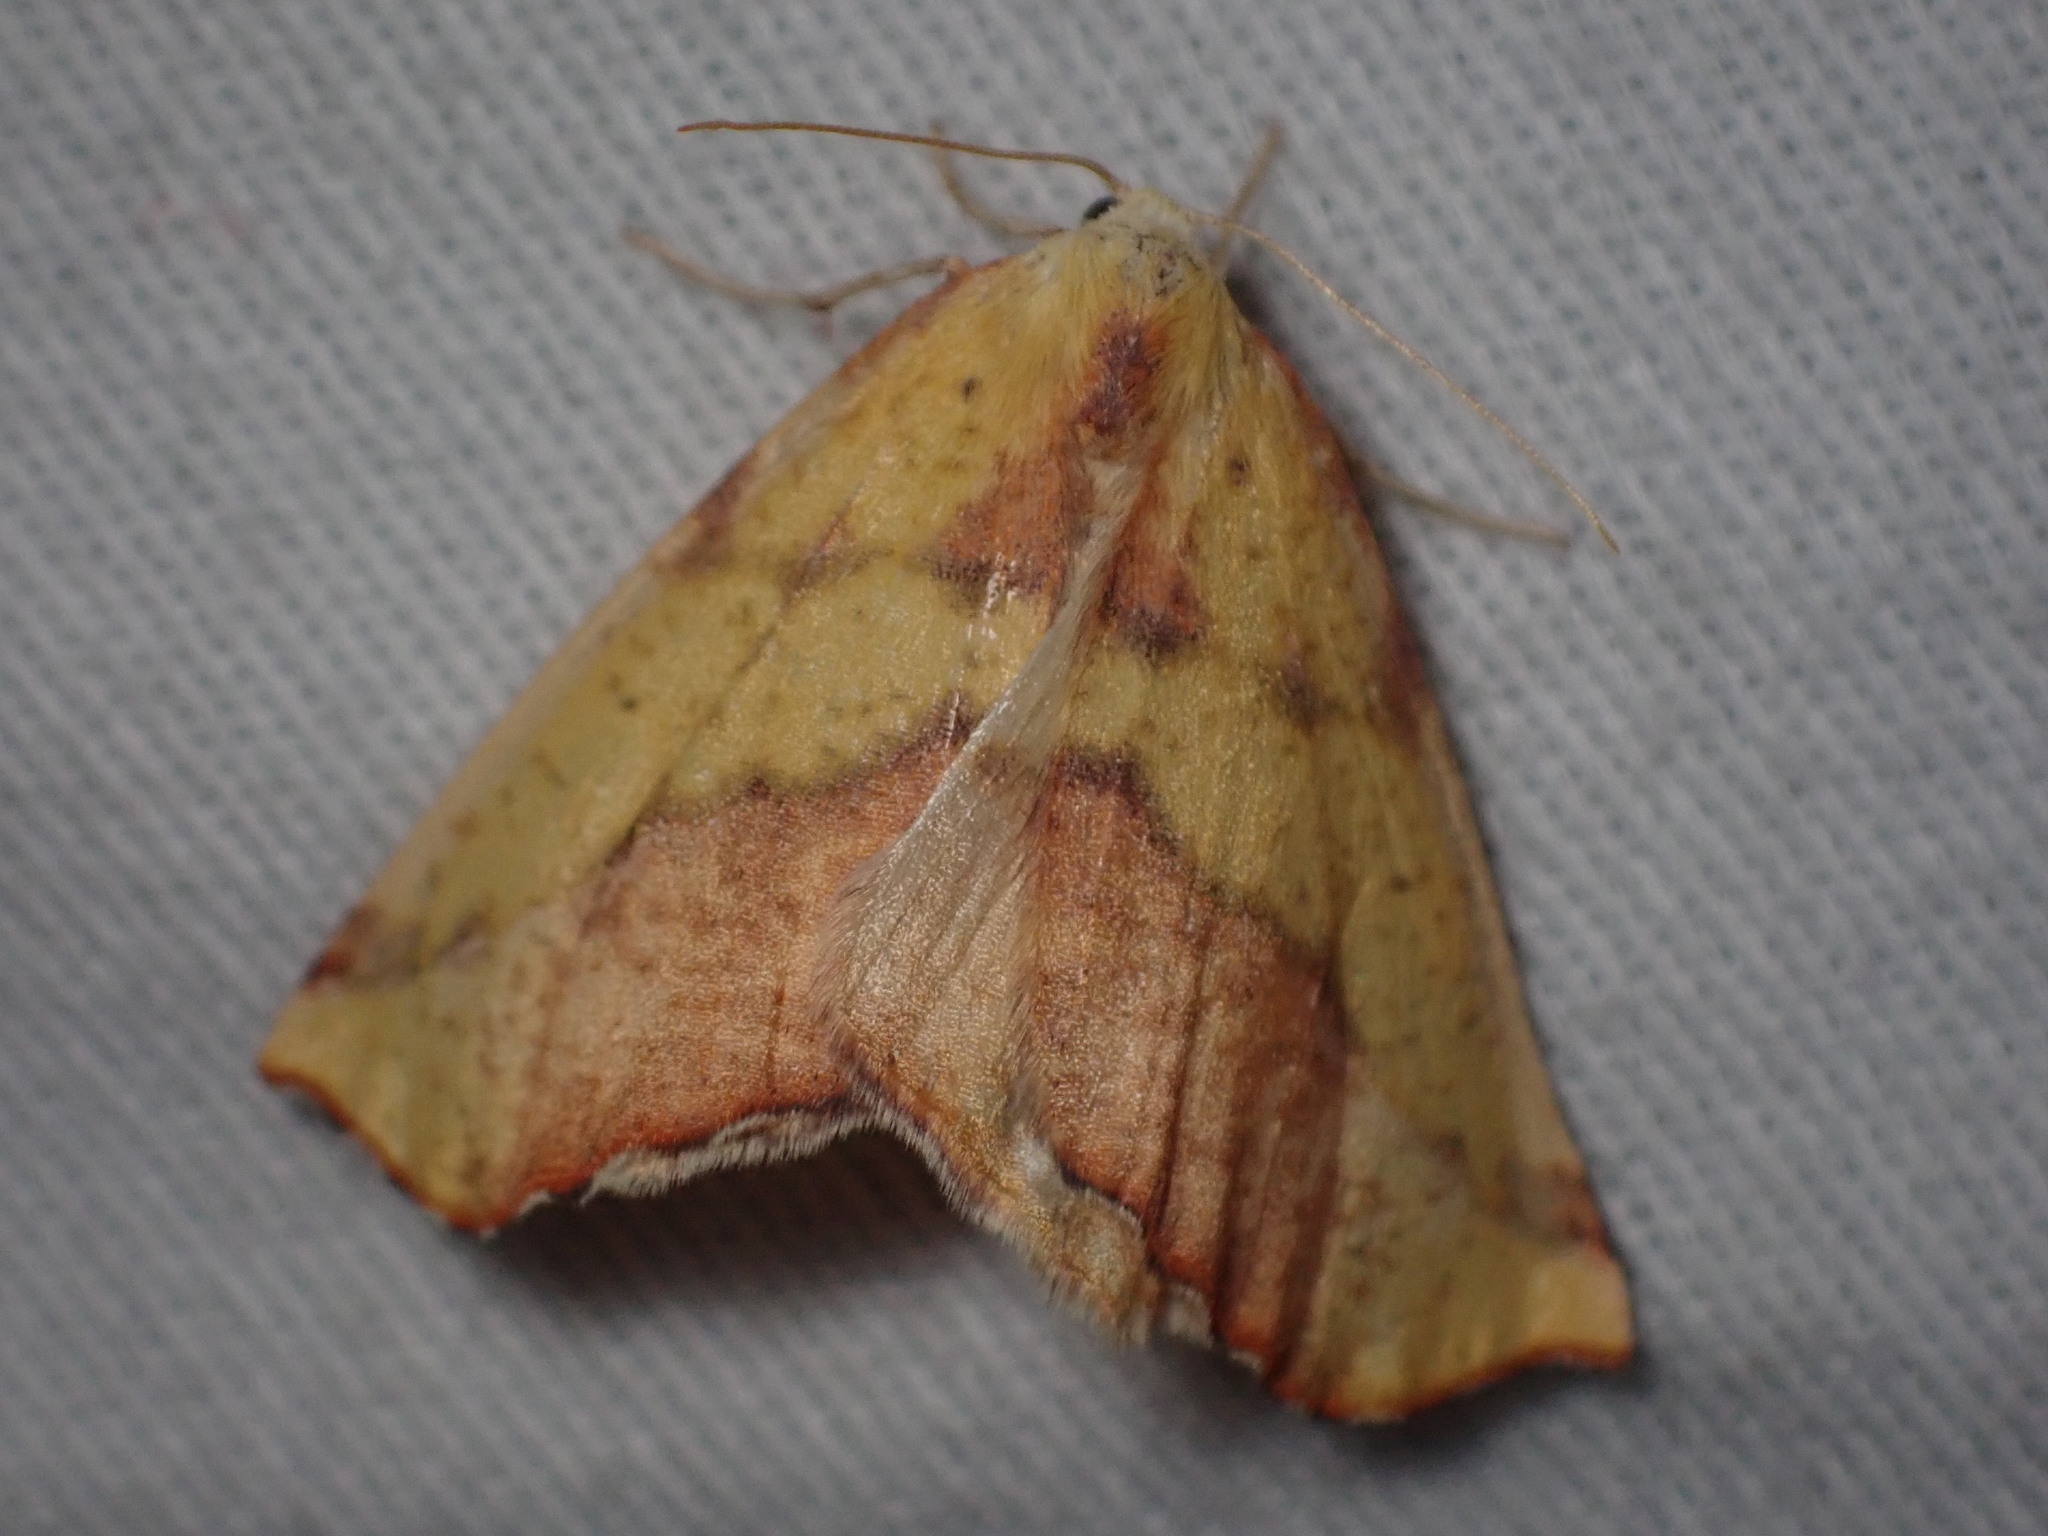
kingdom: Animalia
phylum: Arthropoda
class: Insecta
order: Lepidoptera
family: Geometridae
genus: Sicya
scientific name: Sicya macularia
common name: Sharp-lined yellow
